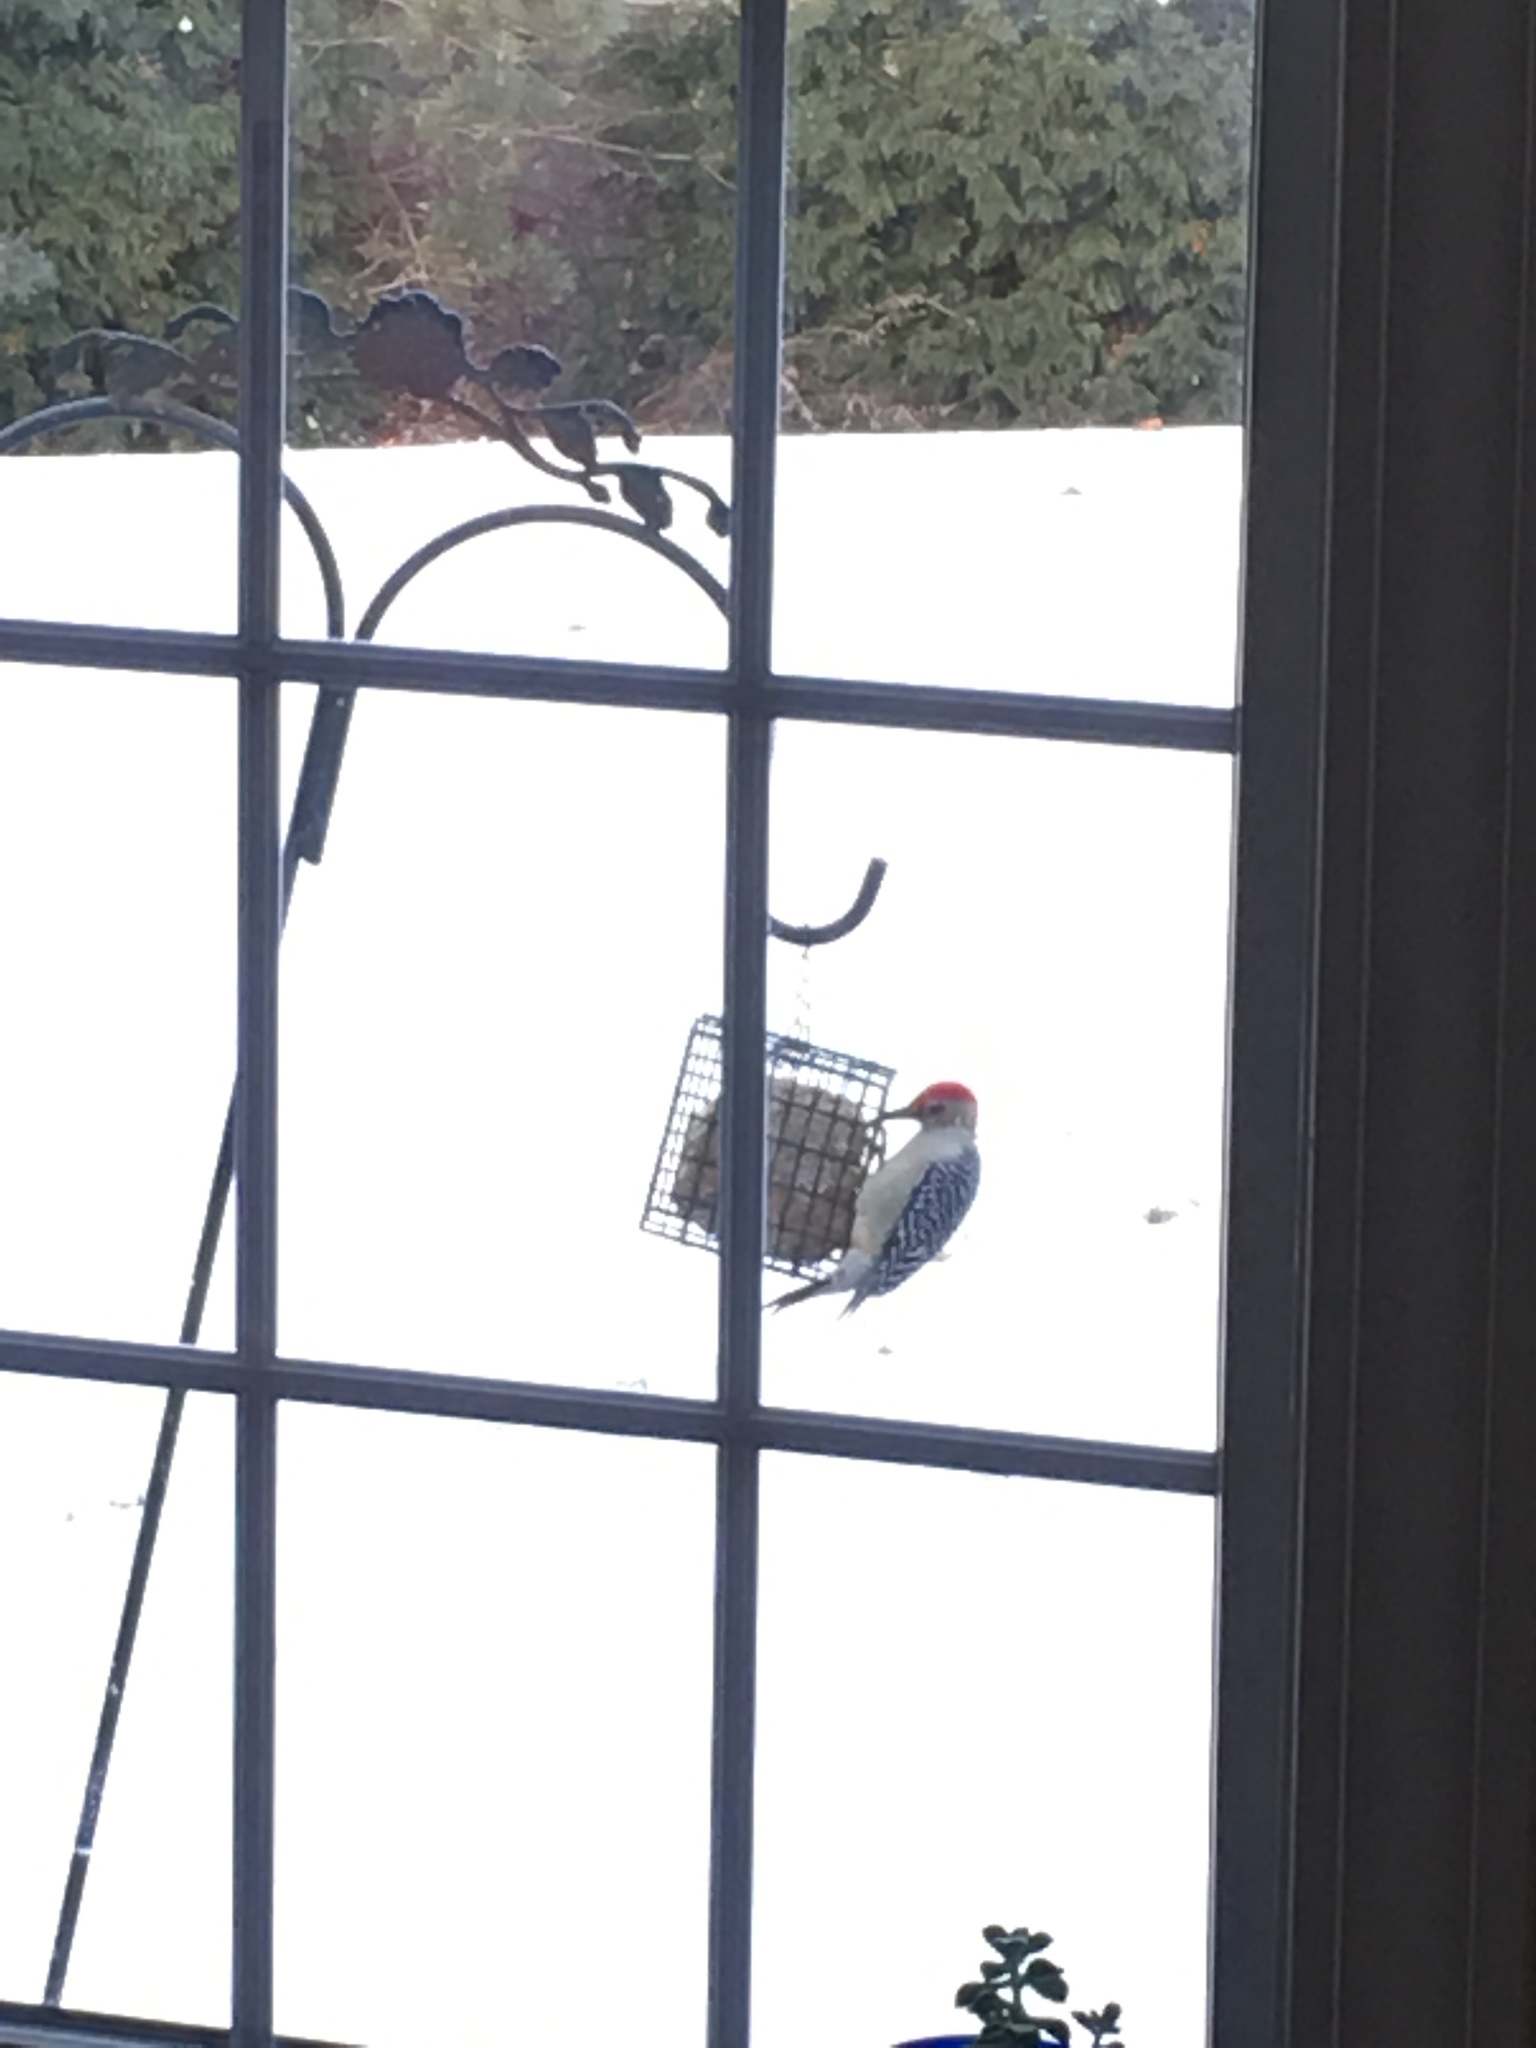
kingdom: Animalia
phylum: Chordata
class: Aves
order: Piciformes
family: Picidae
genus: Melanerpes
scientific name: Melanerpes carolinus
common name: Red-bellied woodpecker
